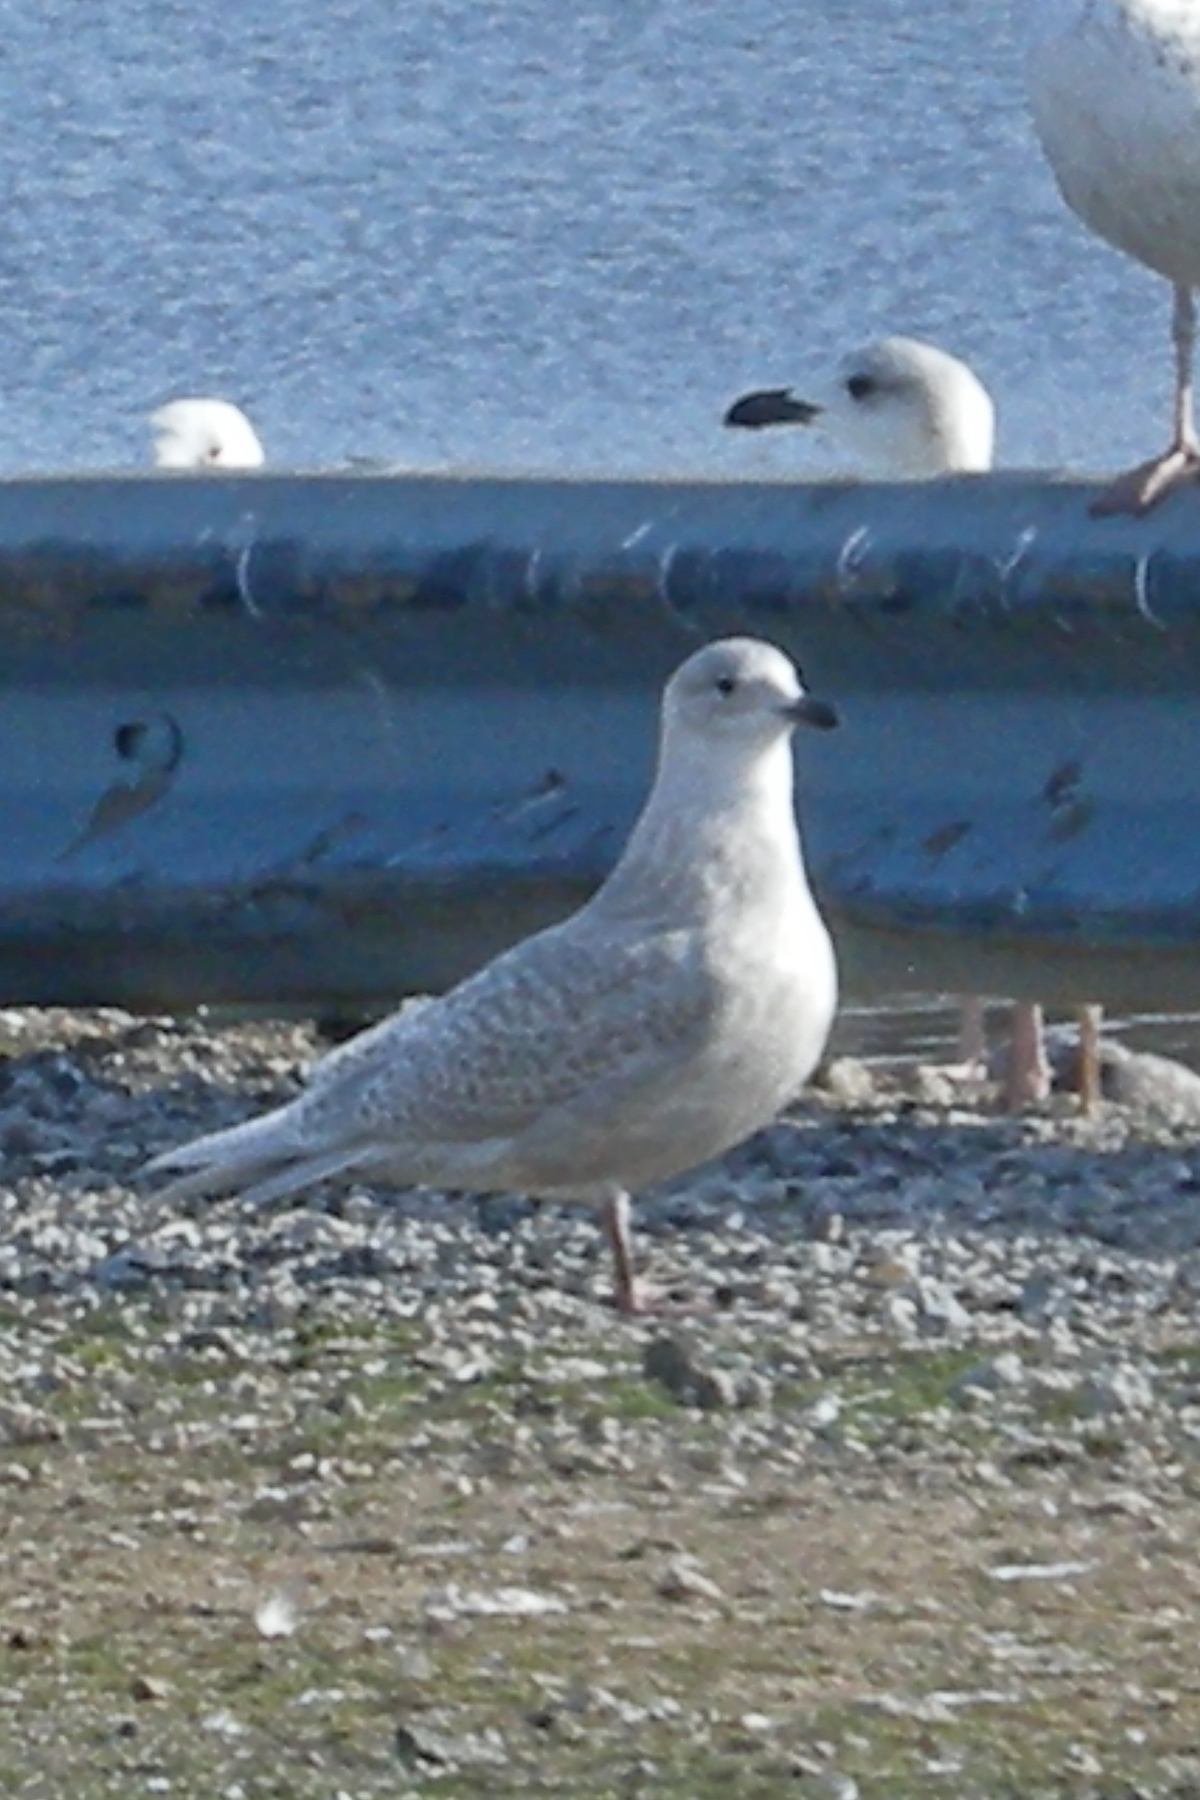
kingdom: Animalia
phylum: Chordata
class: Aves
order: Charadriiformes
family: Laridae
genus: Larus
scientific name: Larus glaucoides
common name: Iceland gull
